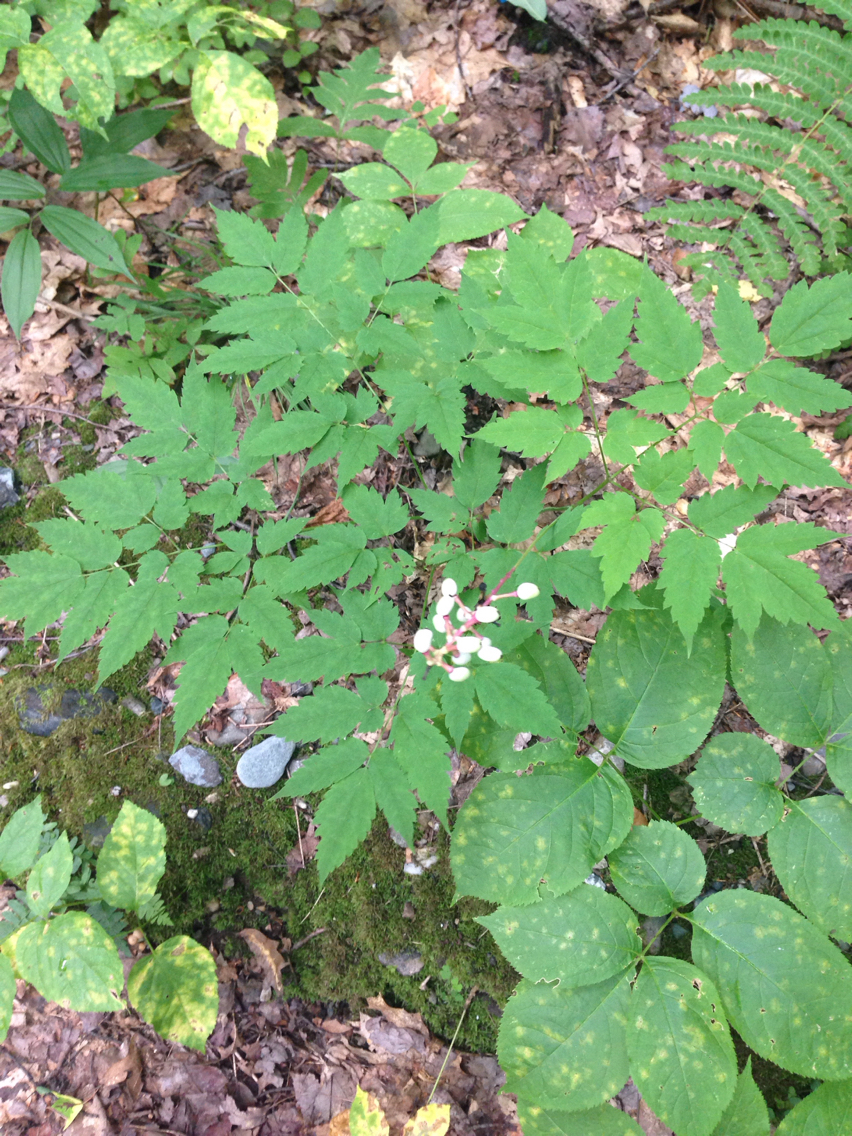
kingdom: Plantae
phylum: Tracheophyta
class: Magnoliopsida
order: Ranunculales
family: Ranunculaceae
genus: Actaea
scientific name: Actaea pachypoda
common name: Doll's-eyes
